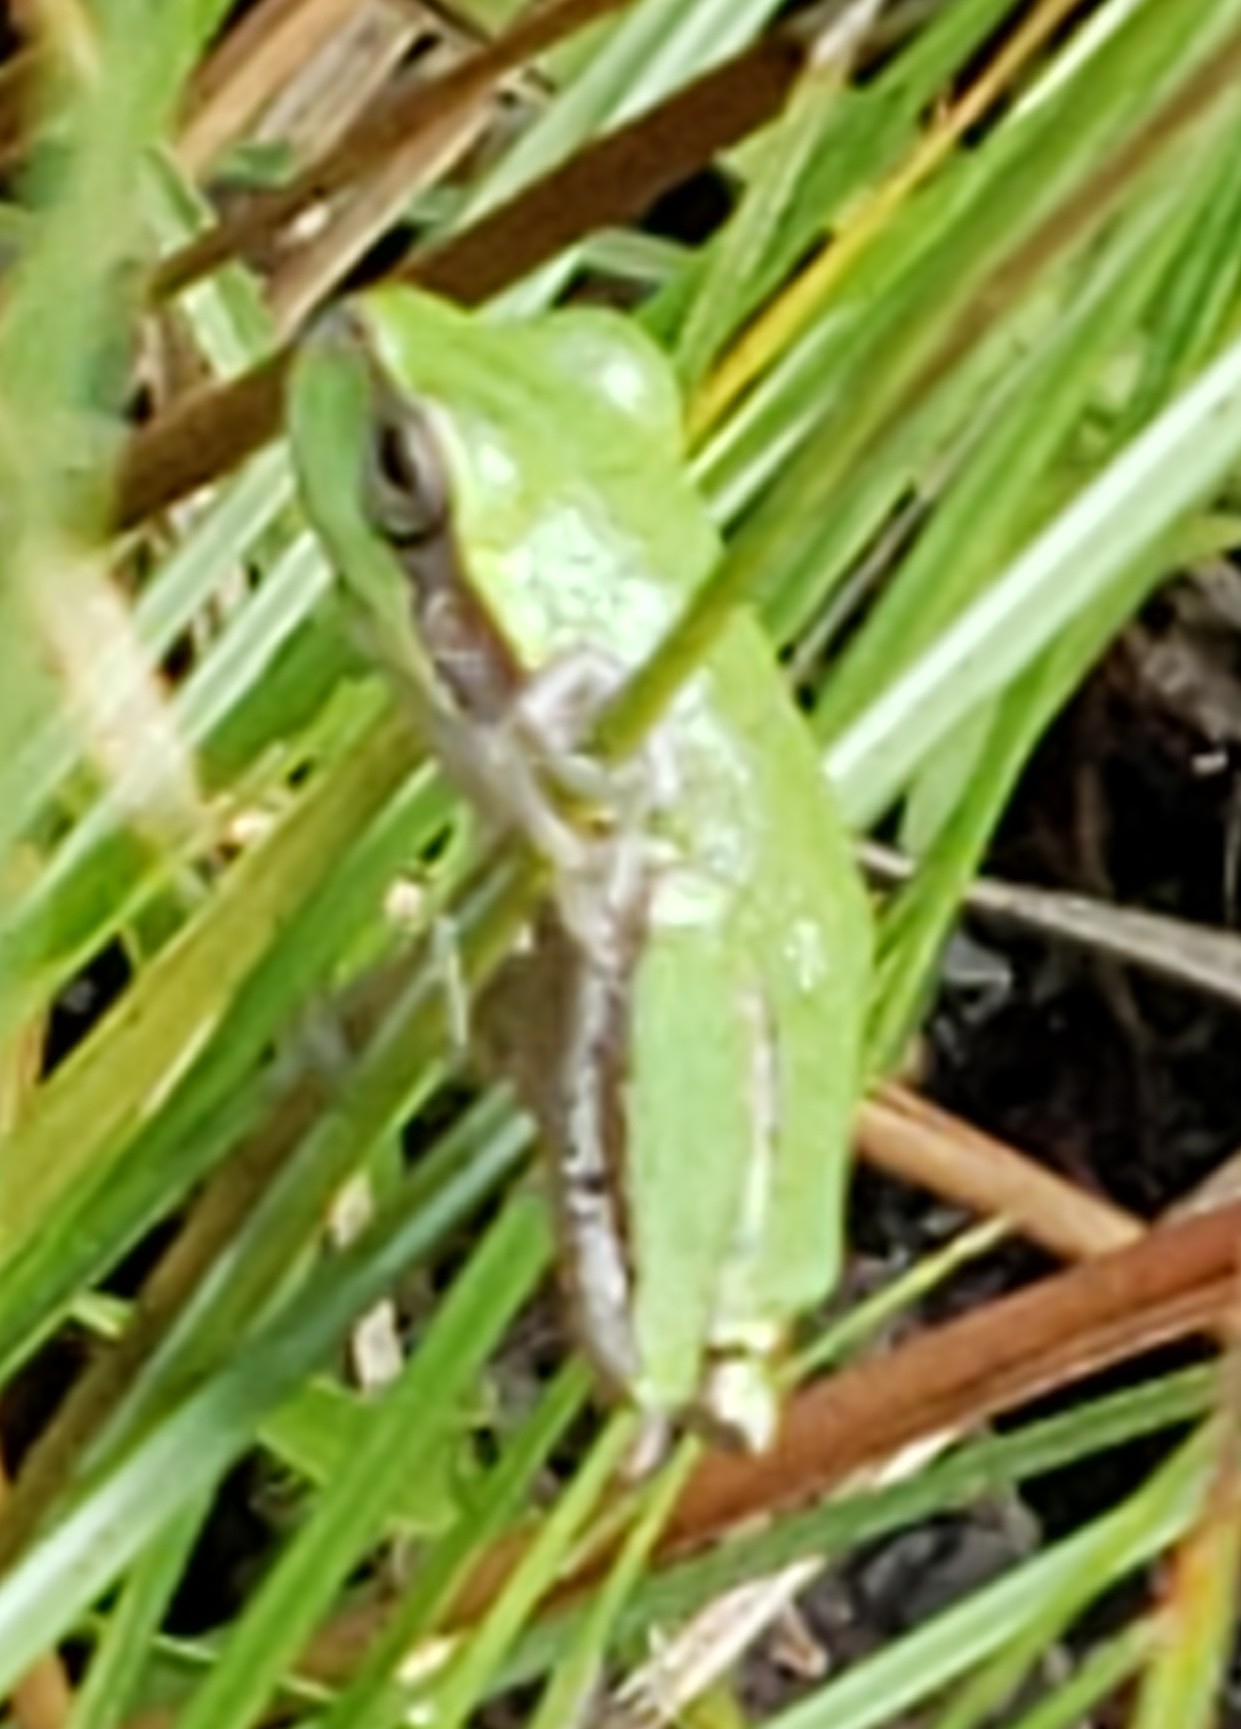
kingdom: Animalia
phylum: Chordata
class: Amphibia
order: Anura
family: Hylidae
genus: Hyla
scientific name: Hyla femoralis
